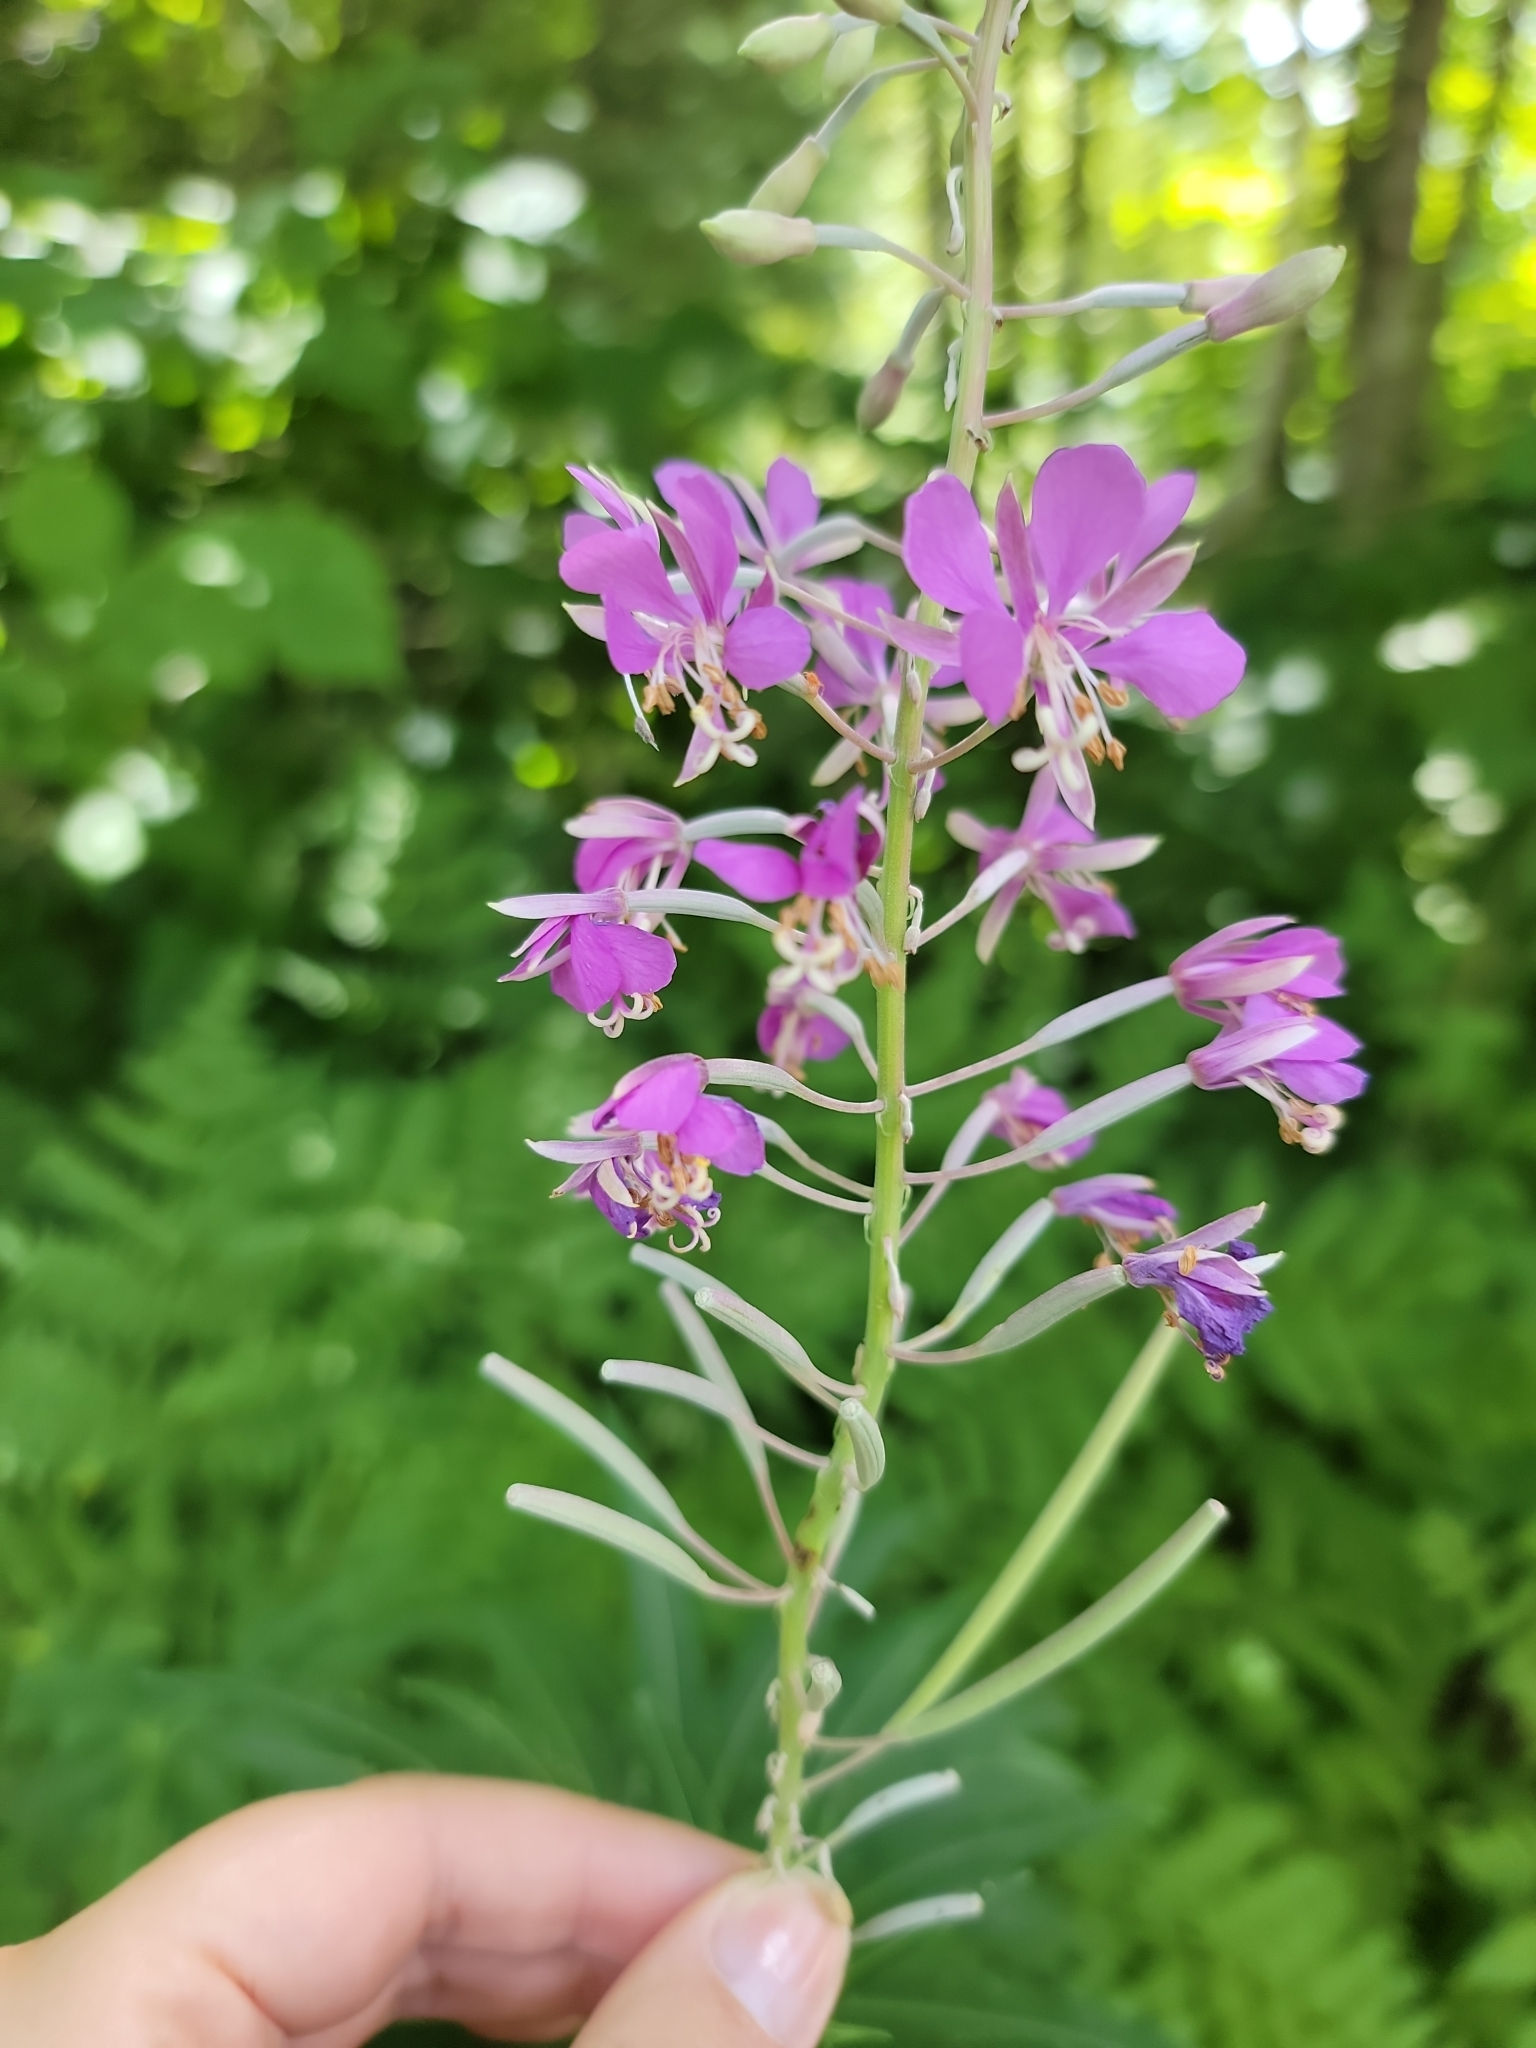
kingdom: Plantae
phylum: Tracheophyta
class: Magnoliopsida
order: Myrtales
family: Onagraceae
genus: Chamaenerion
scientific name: Chamaenerion angustifolium
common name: Fireweed
